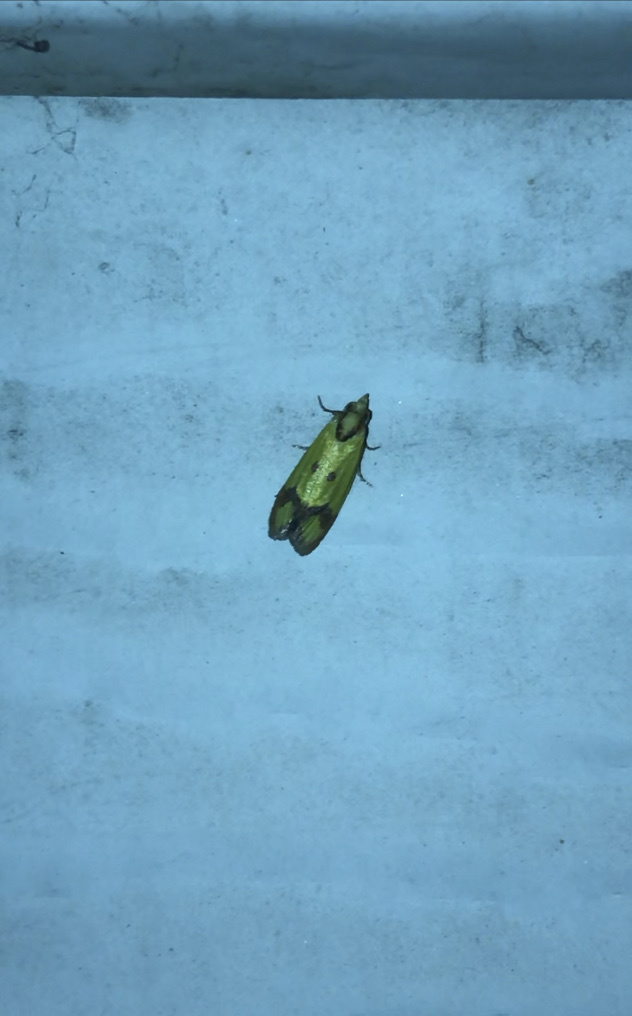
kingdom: Animalia
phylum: Arthropoda
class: Insecta
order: Lepidoptera
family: Tortricidae
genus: Agapeta
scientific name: Agapeta zoegana
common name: Sulfur knapweed root moth
